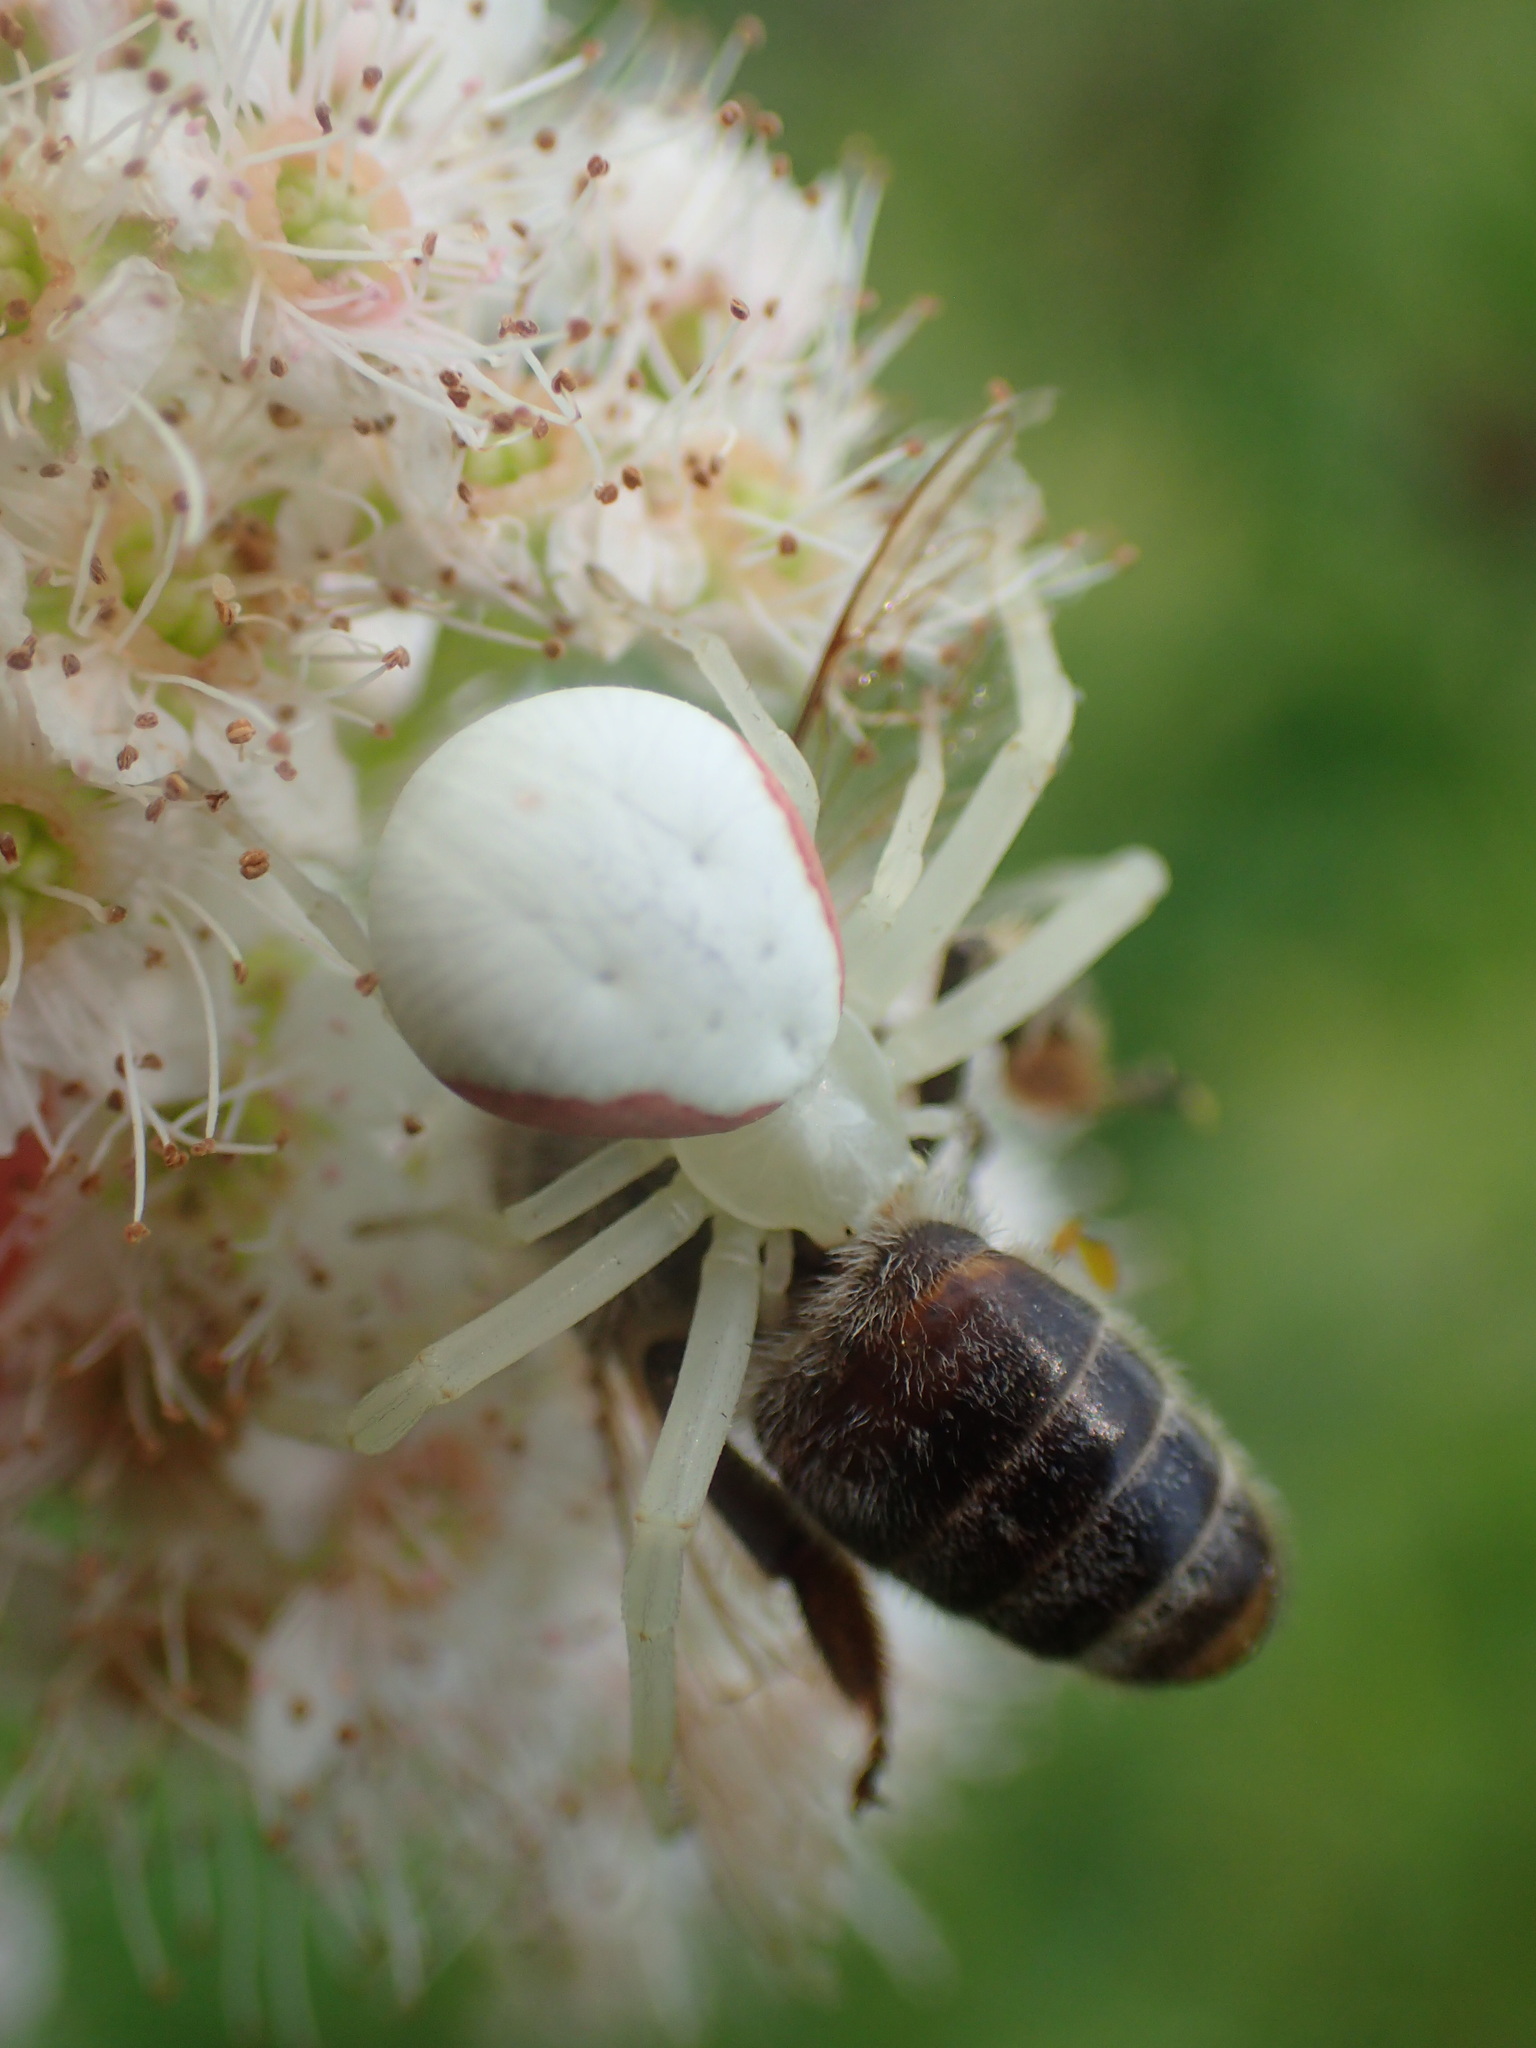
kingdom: Animalia
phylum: Arthropoda
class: Arachnida
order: Araneae
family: Thomisidae
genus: Misumena
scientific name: Misumena vatia
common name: Goldenrod crab spider
